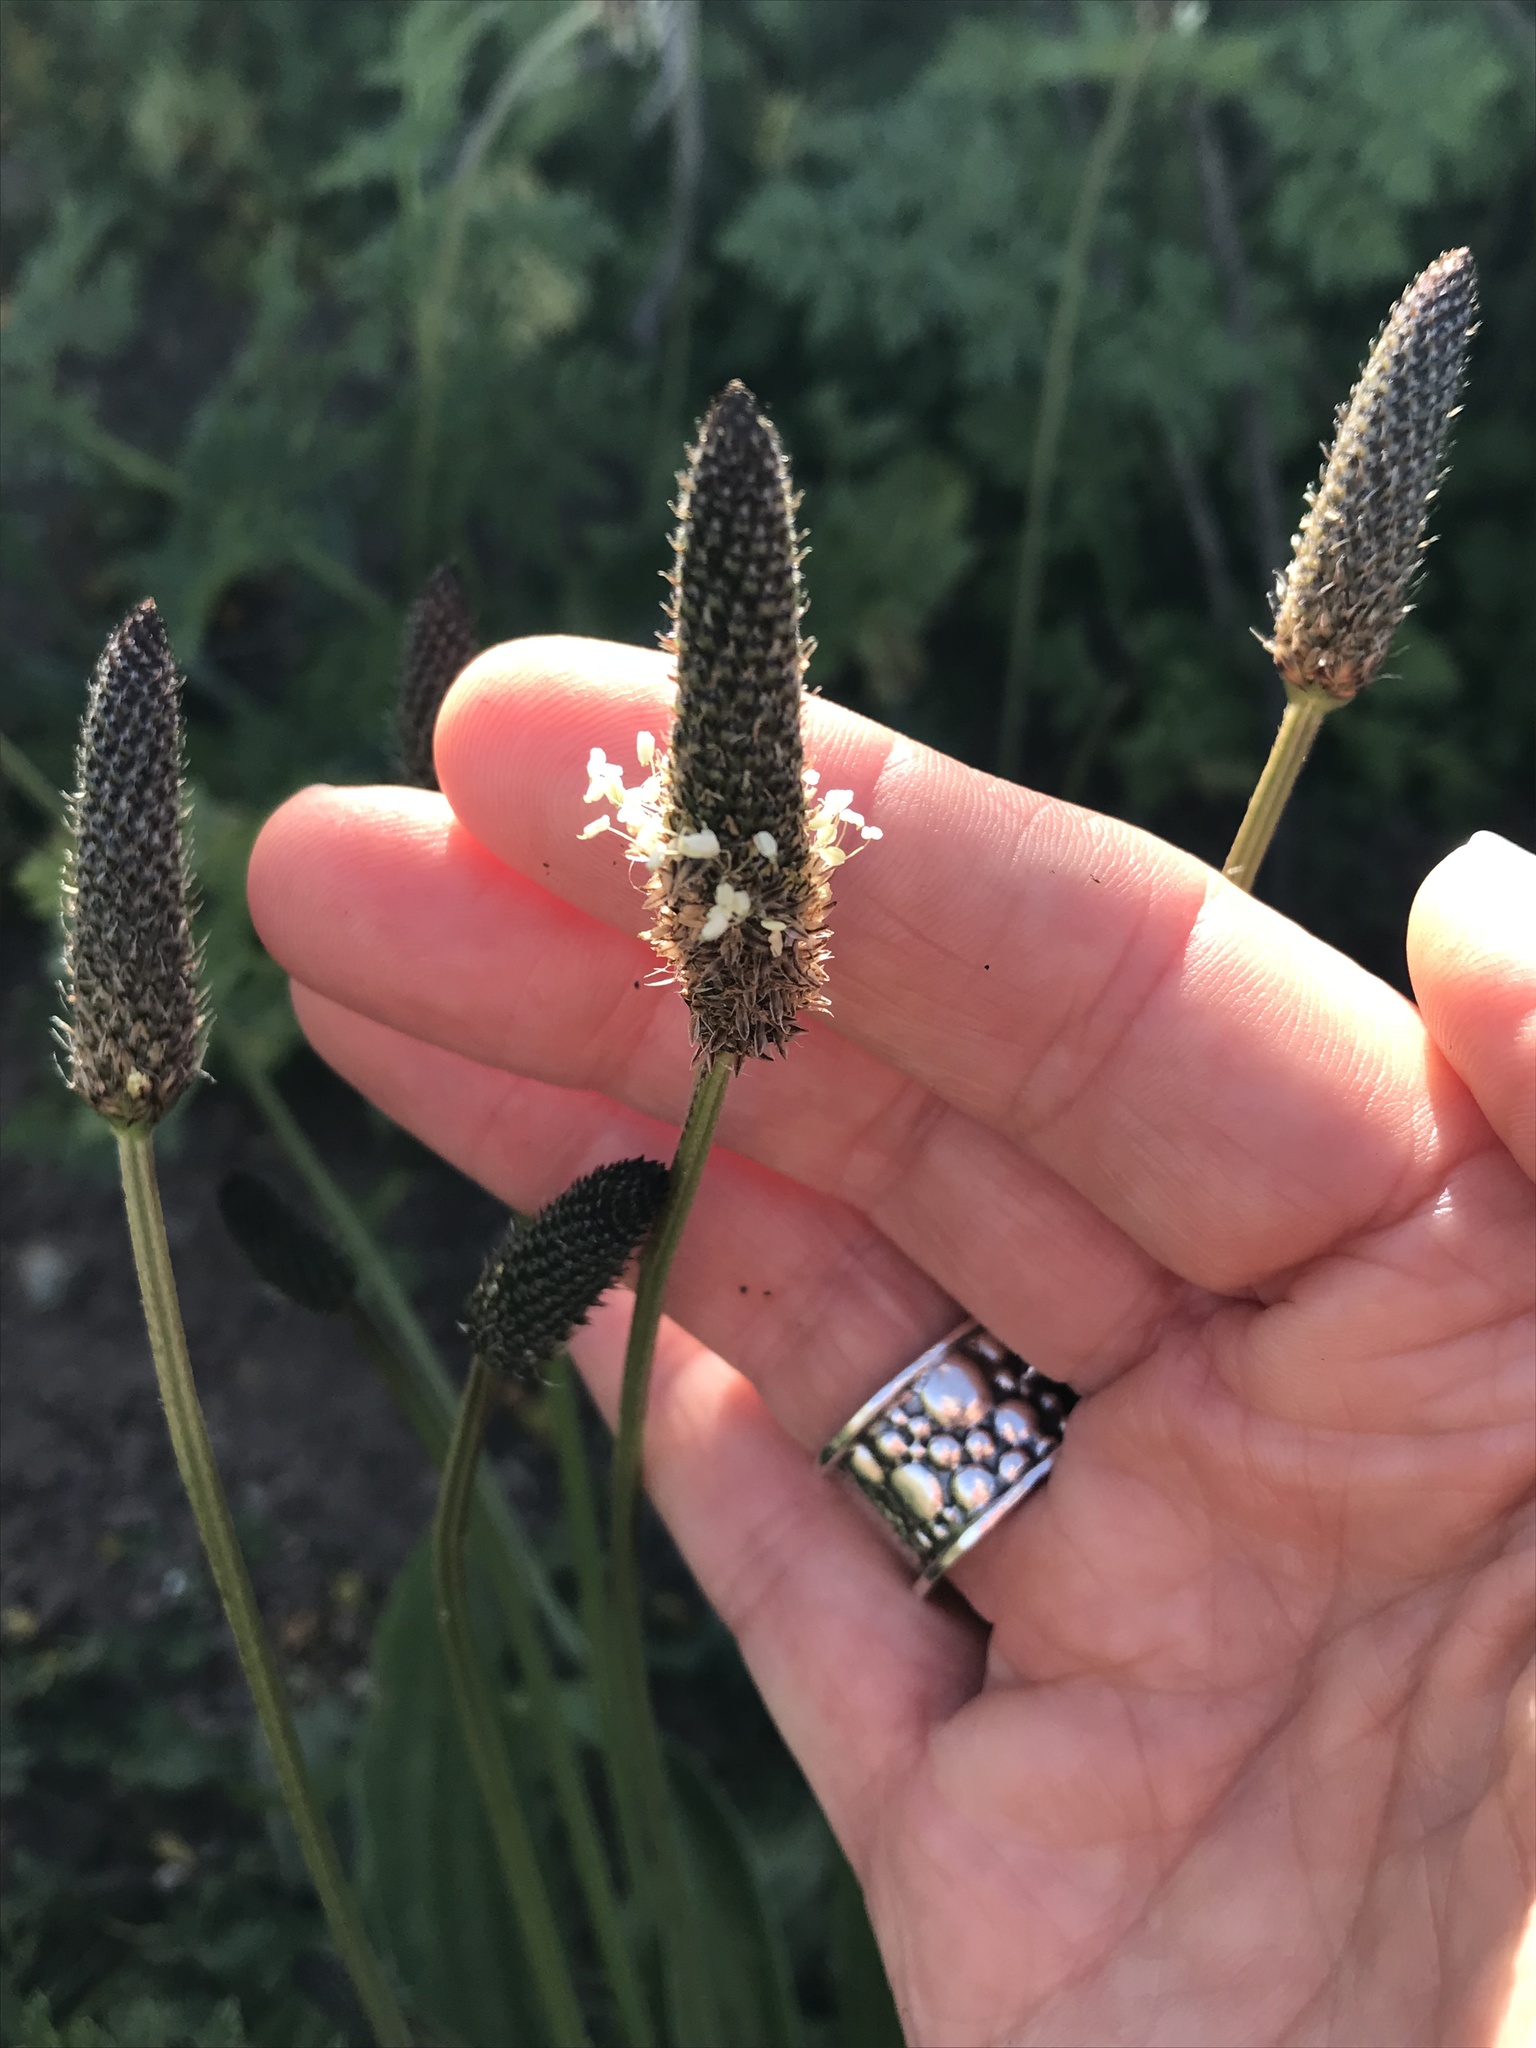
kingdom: Plantae
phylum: Tracheophyta
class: Magnoliopsida
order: Lamiales
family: Plantaginaceae
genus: Plantago
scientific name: Plantago lanceolata
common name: Ribwort plantain
